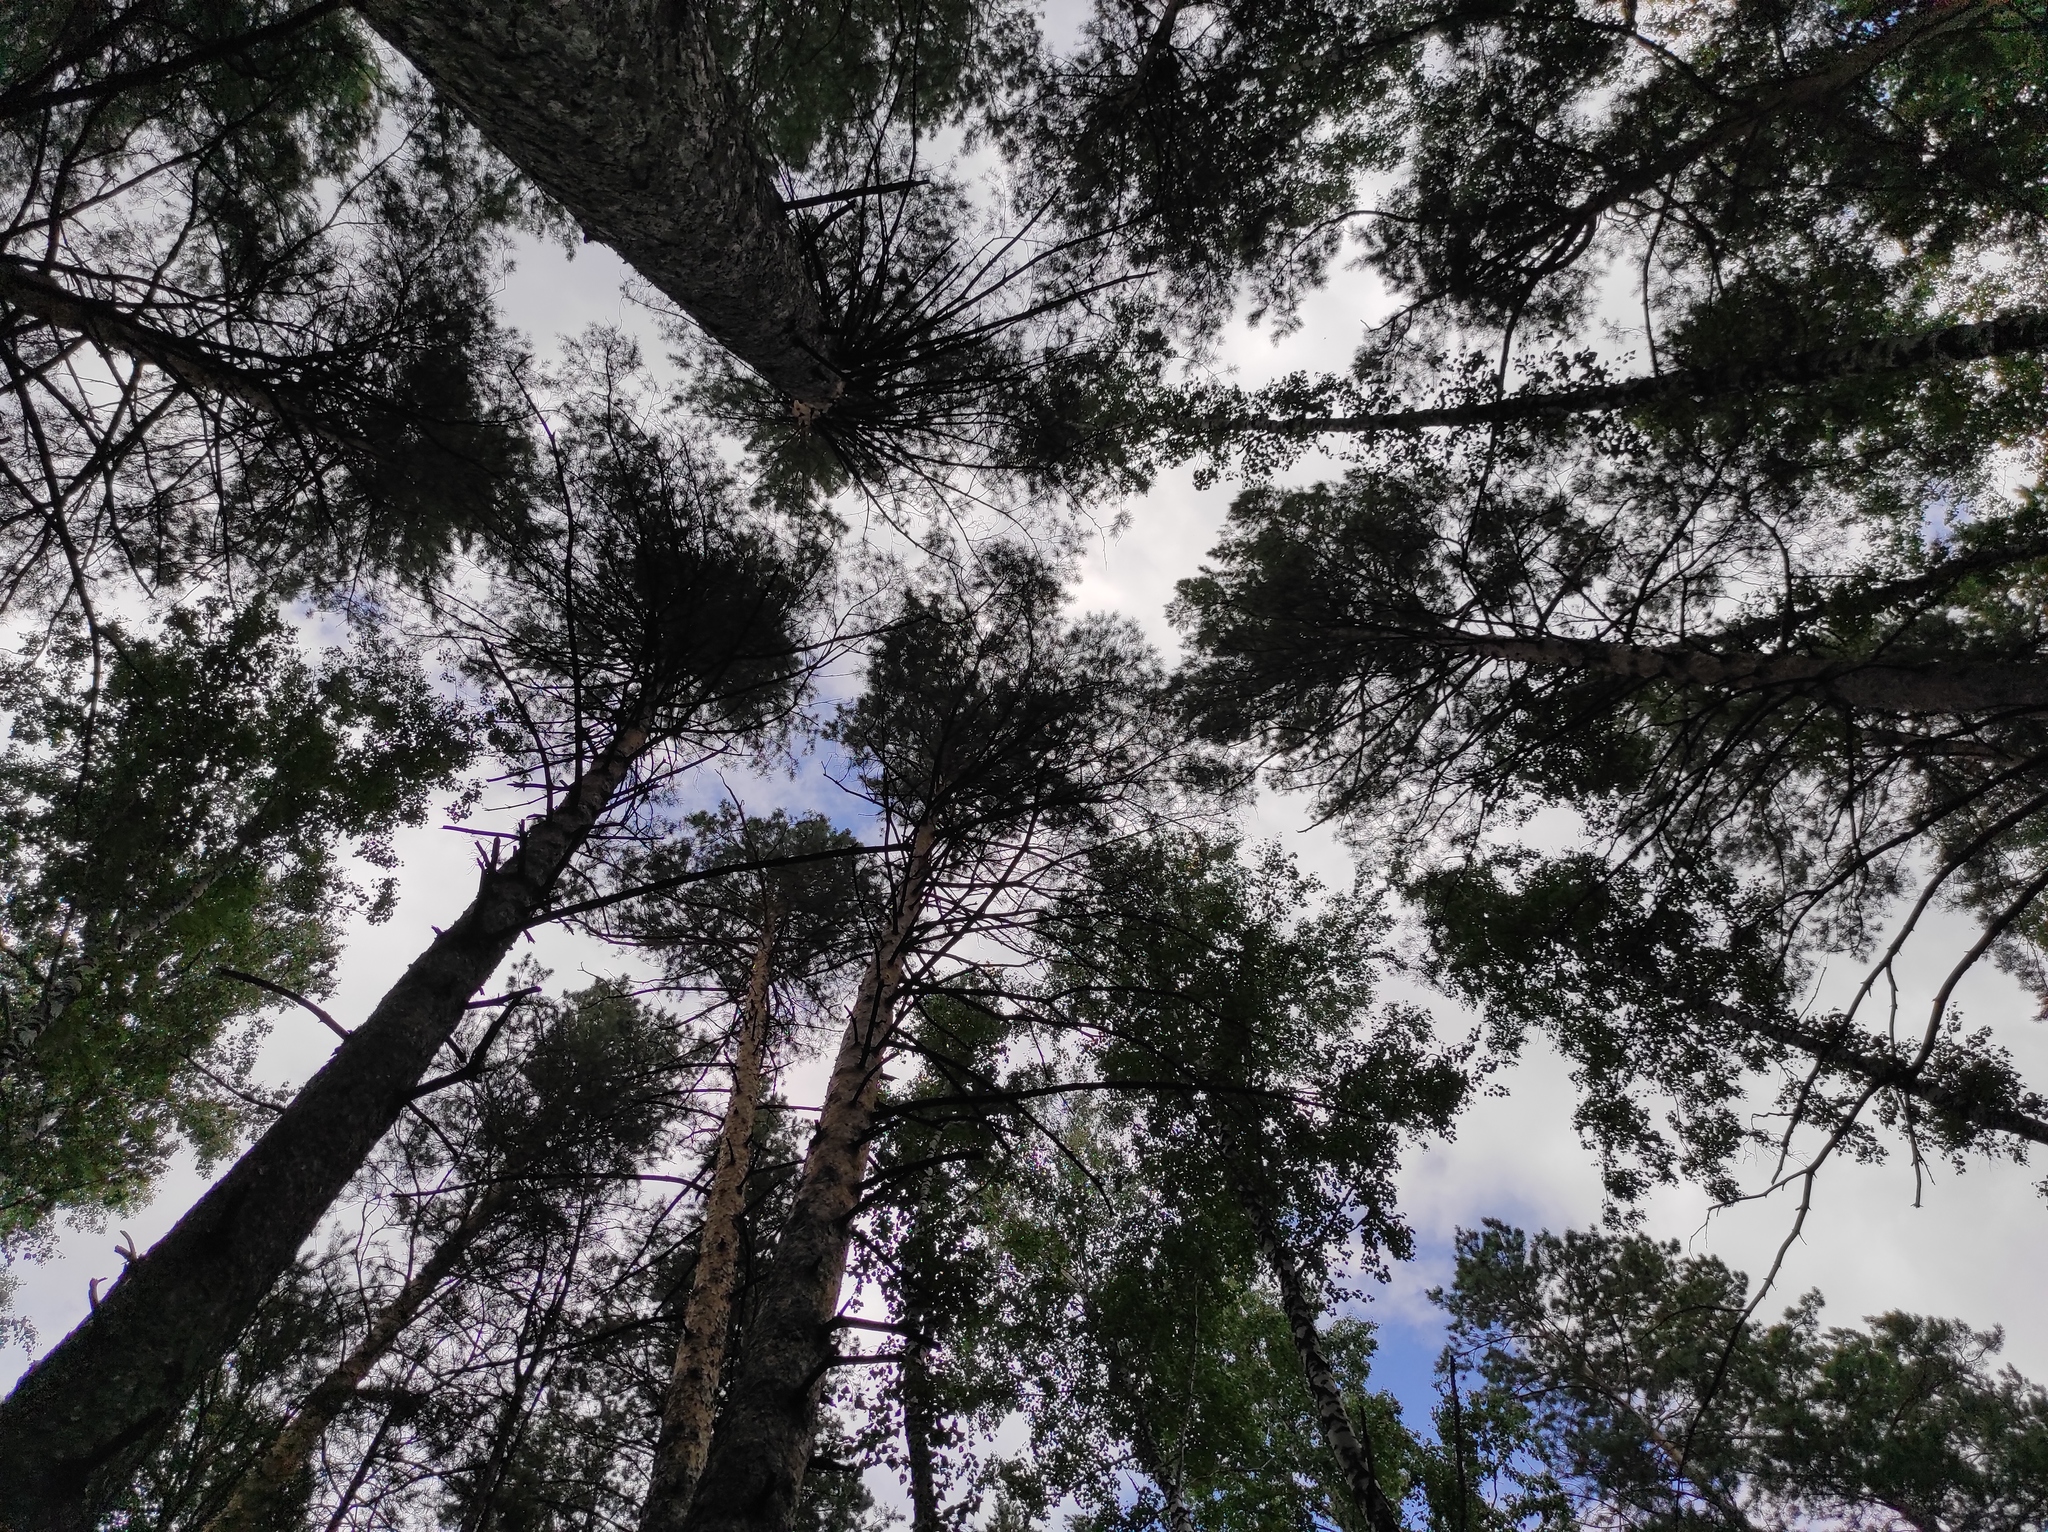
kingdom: Plantae
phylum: Tracheophyta
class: Pinopsida
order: Pinales
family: Pinaceae
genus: Pinus
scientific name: Pinus sylvestris
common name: Scots pine
